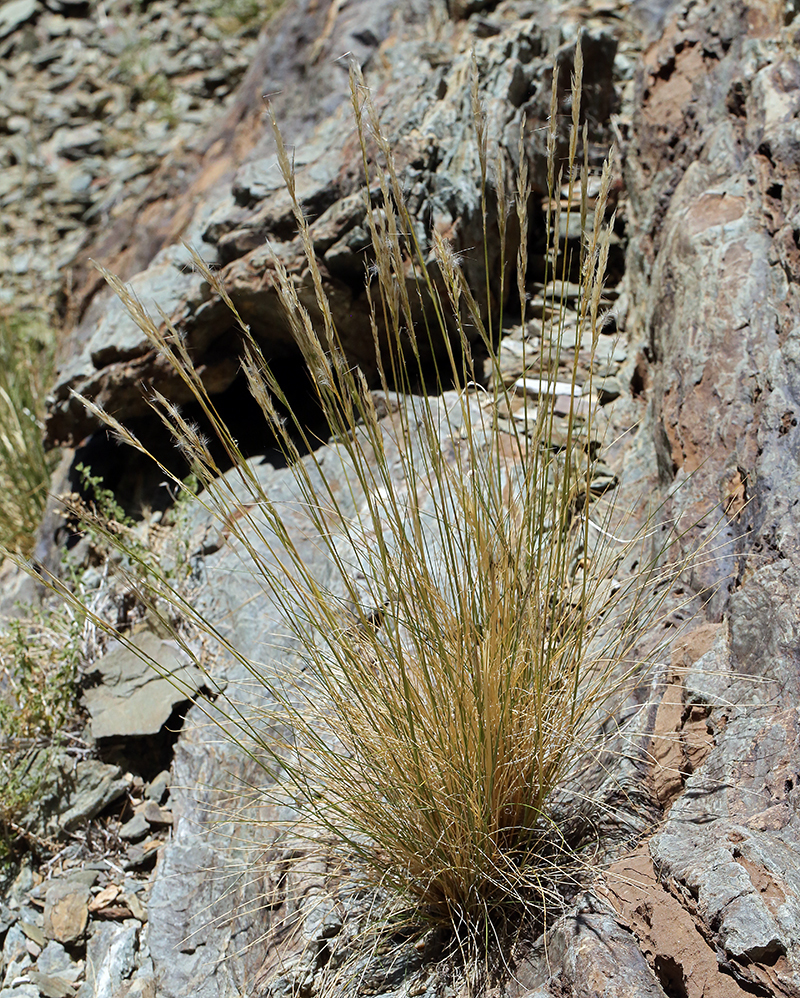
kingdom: Plantae
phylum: Tracheophyta
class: Liliopsida
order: Poales
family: Poaceae
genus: Eriocoma
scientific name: Eriocoma parishii
